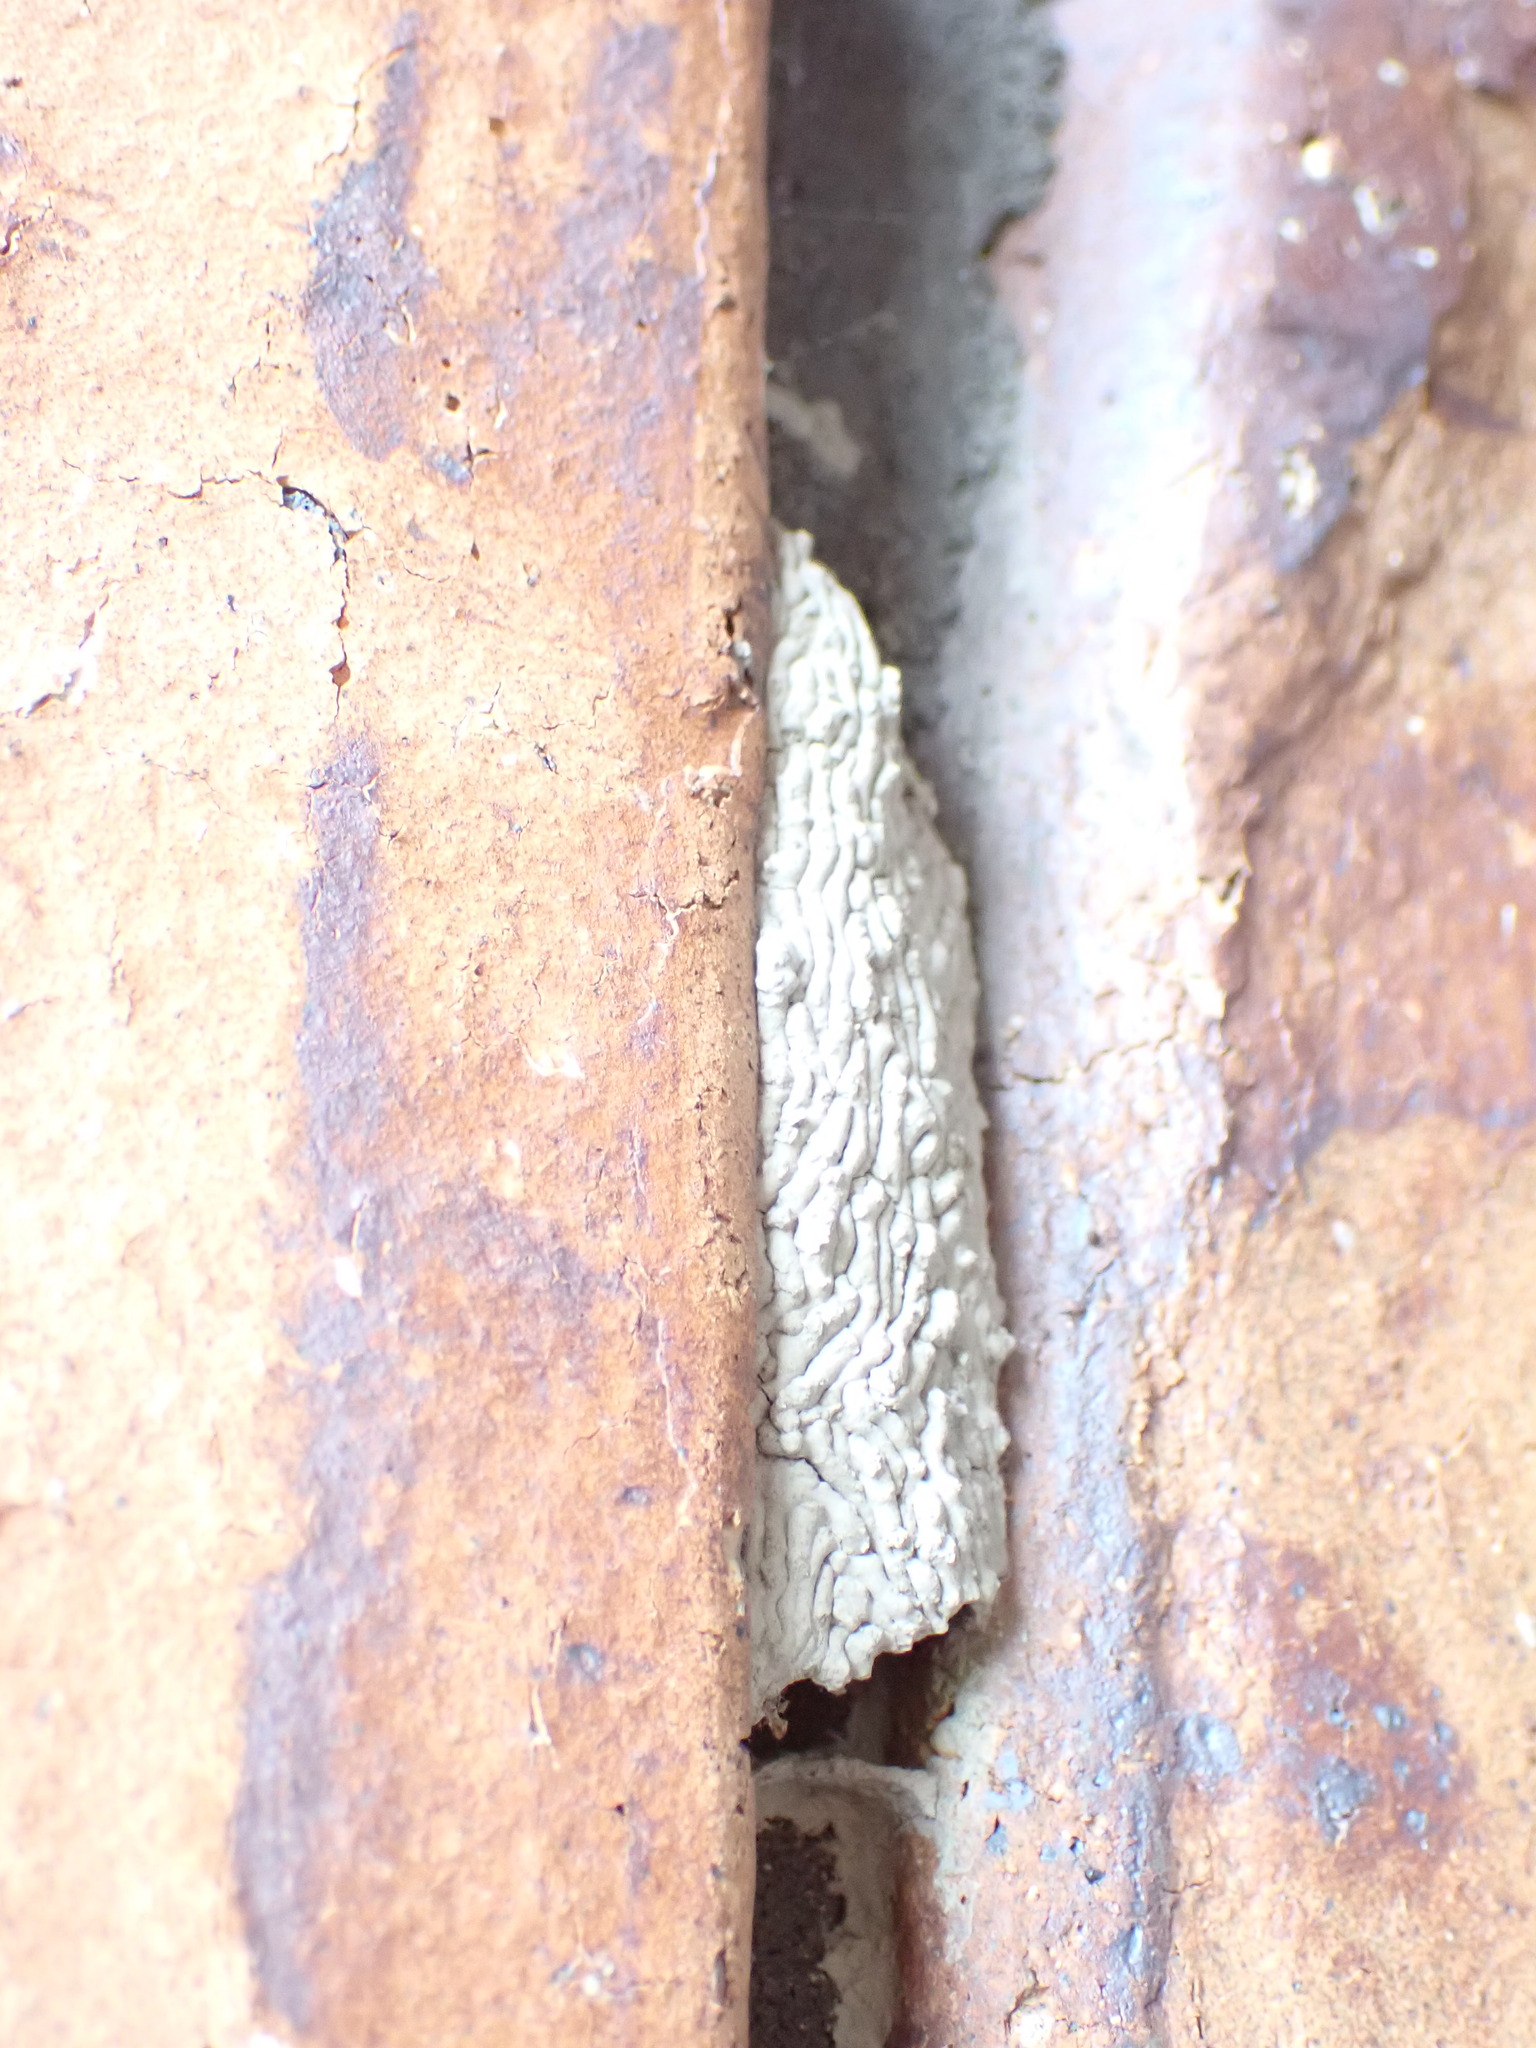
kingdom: Animalia
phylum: Arthropoda
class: Insecta
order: Hymenoptera
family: Crabronidae
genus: Pison
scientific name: Pison spinolae
